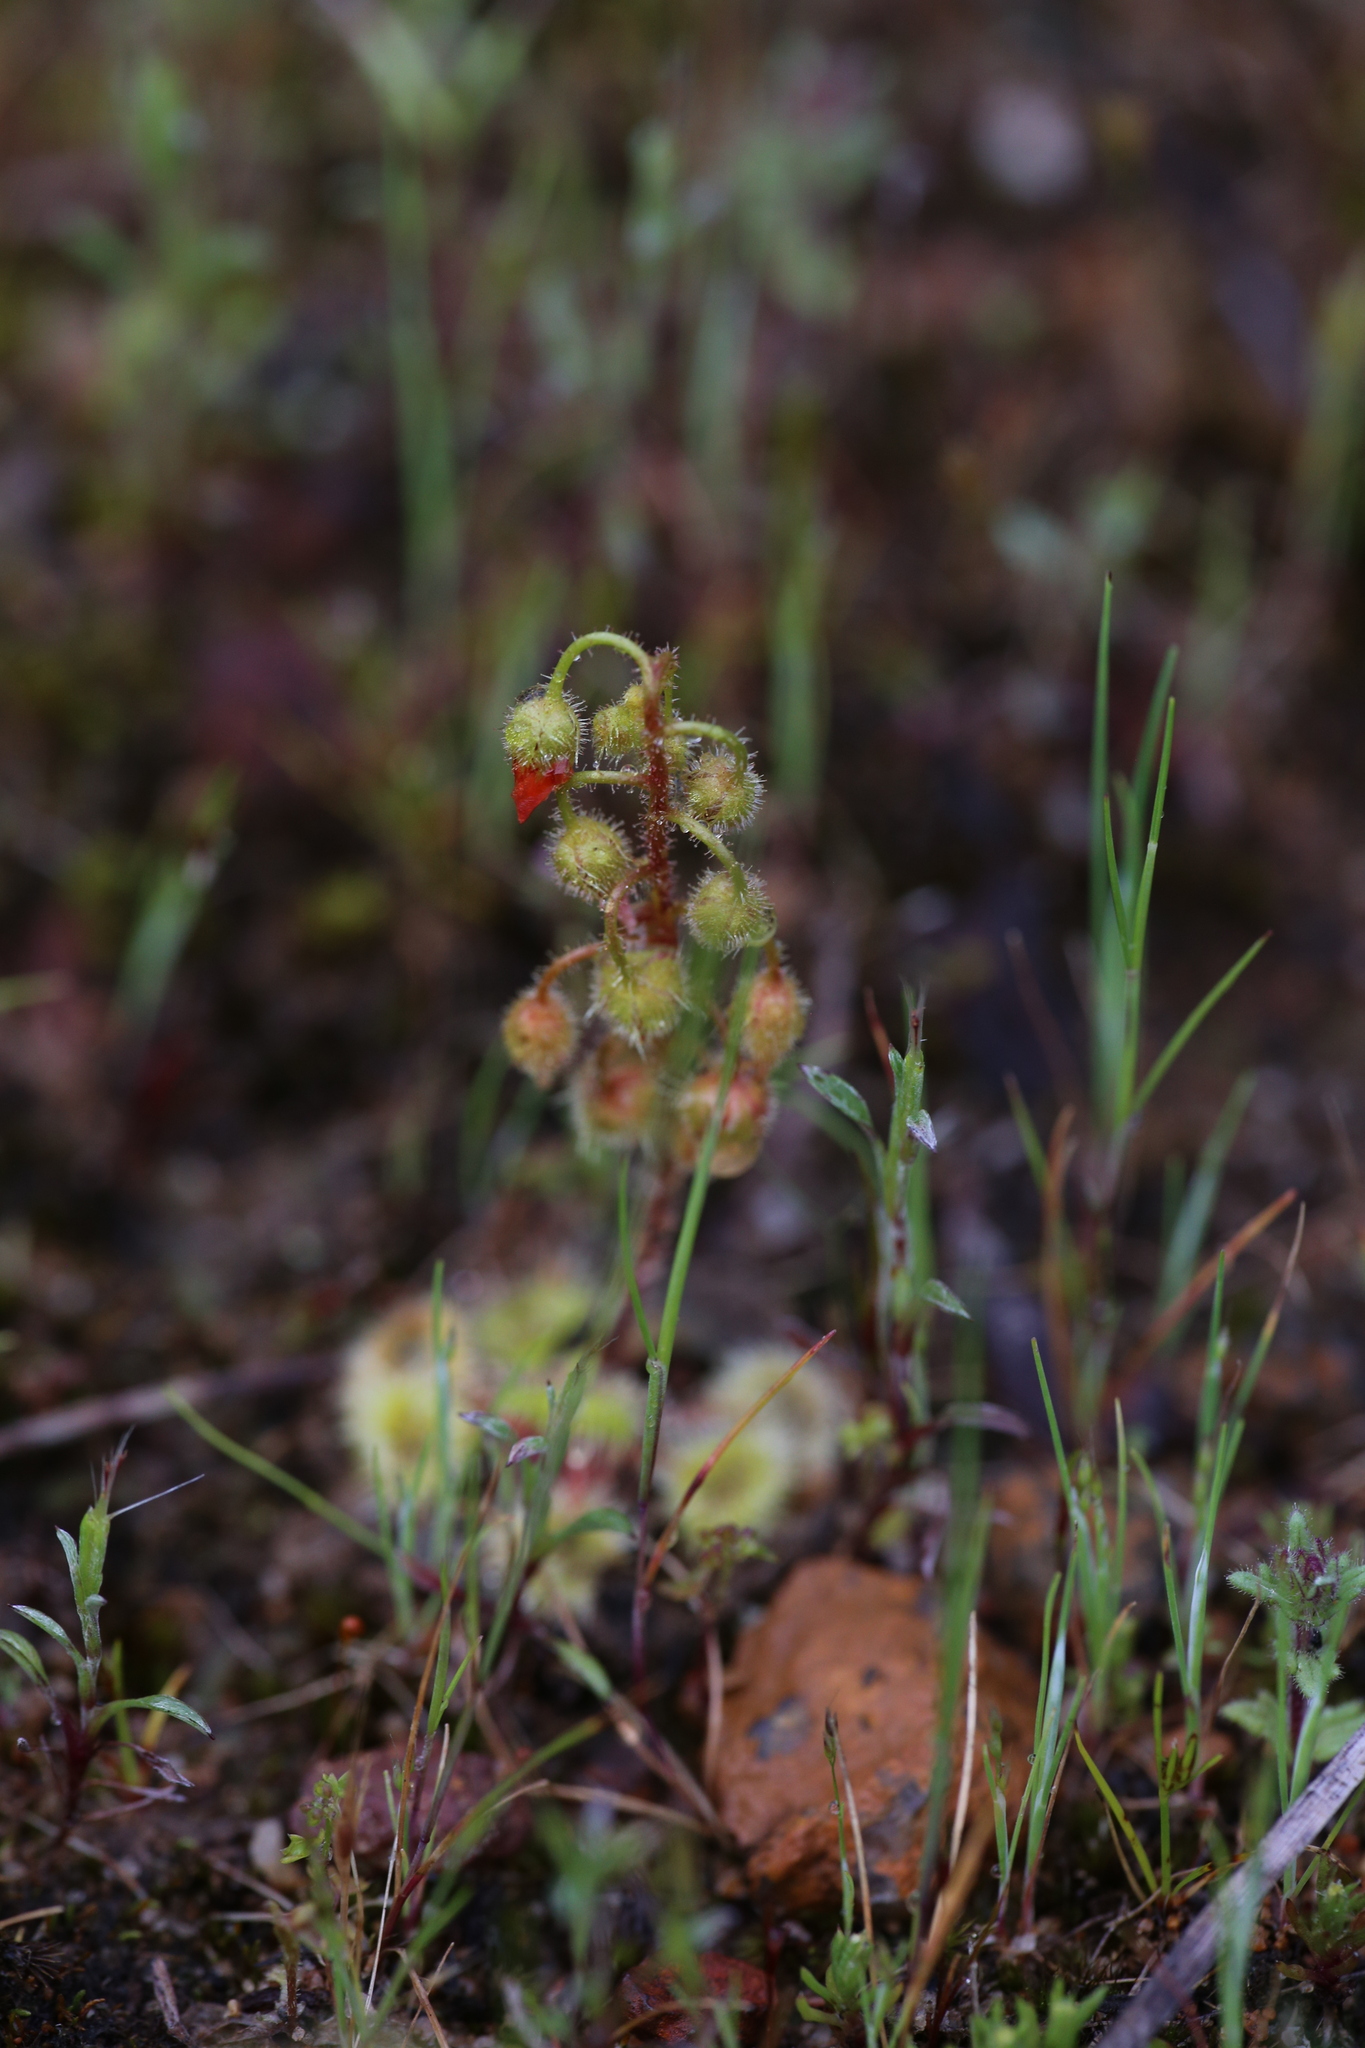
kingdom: Plantae
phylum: Tracheophyta
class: Magnoliopsida
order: Caryophyllales
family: Droseraceae
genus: Drosera
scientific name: Drosera glanduligera
